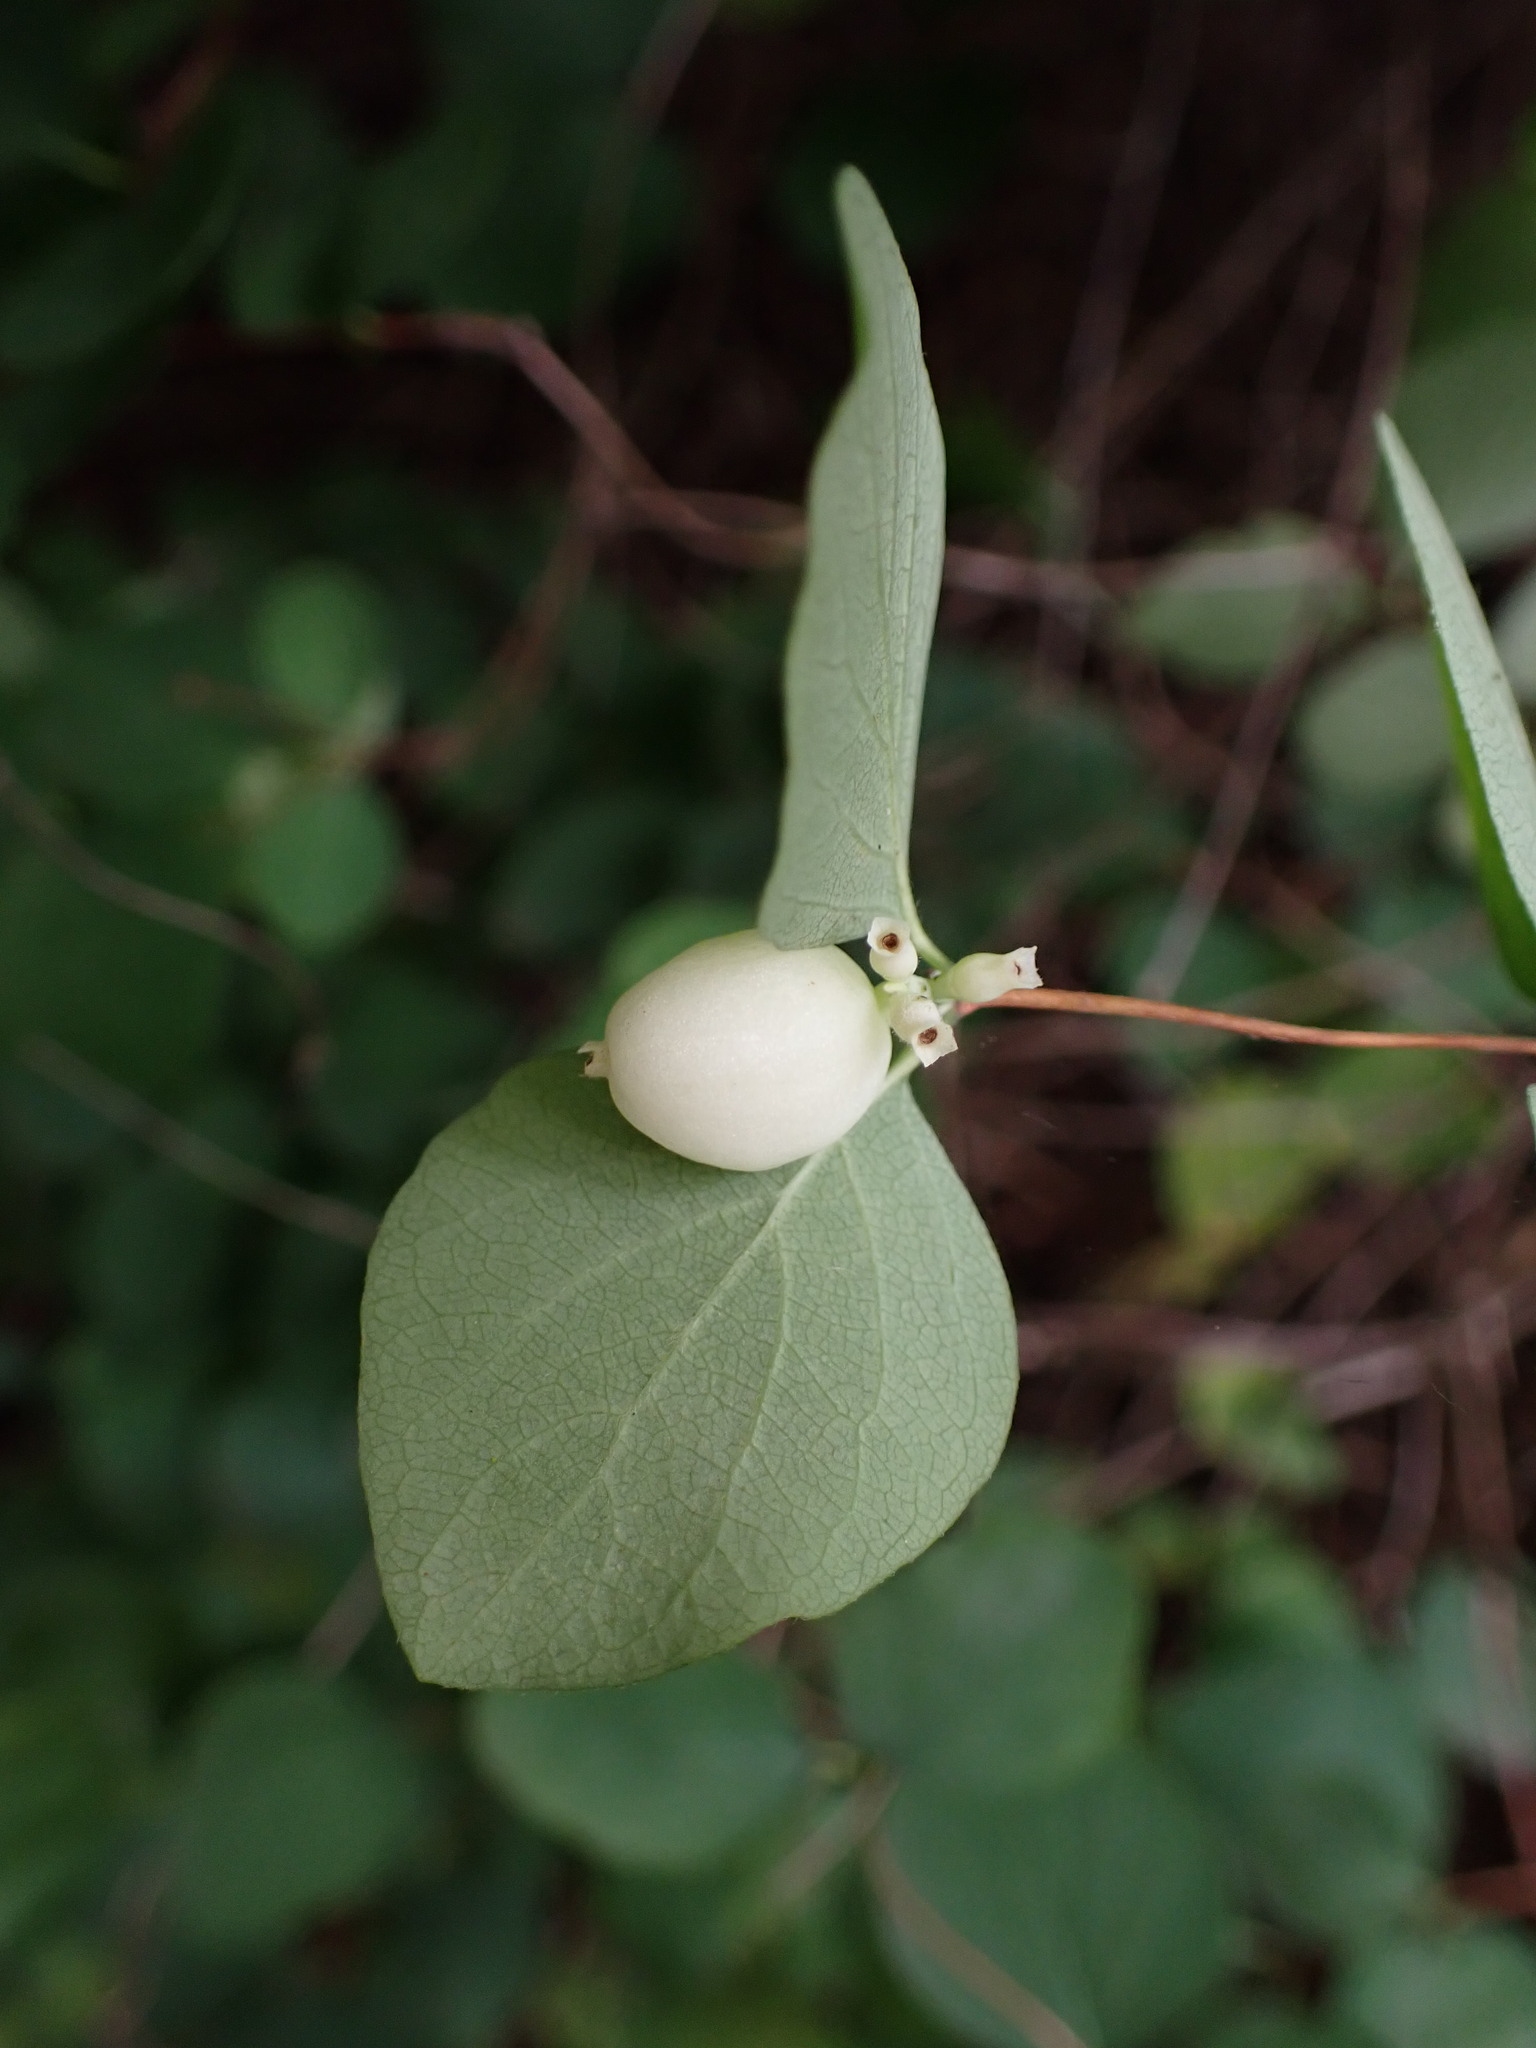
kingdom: Plantae
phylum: Tracheophyta
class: Magnoliopsida
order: Dipsacales
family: Caprifoliaceae
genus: Symphoricarpos
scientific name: Symphoricarpos albus
